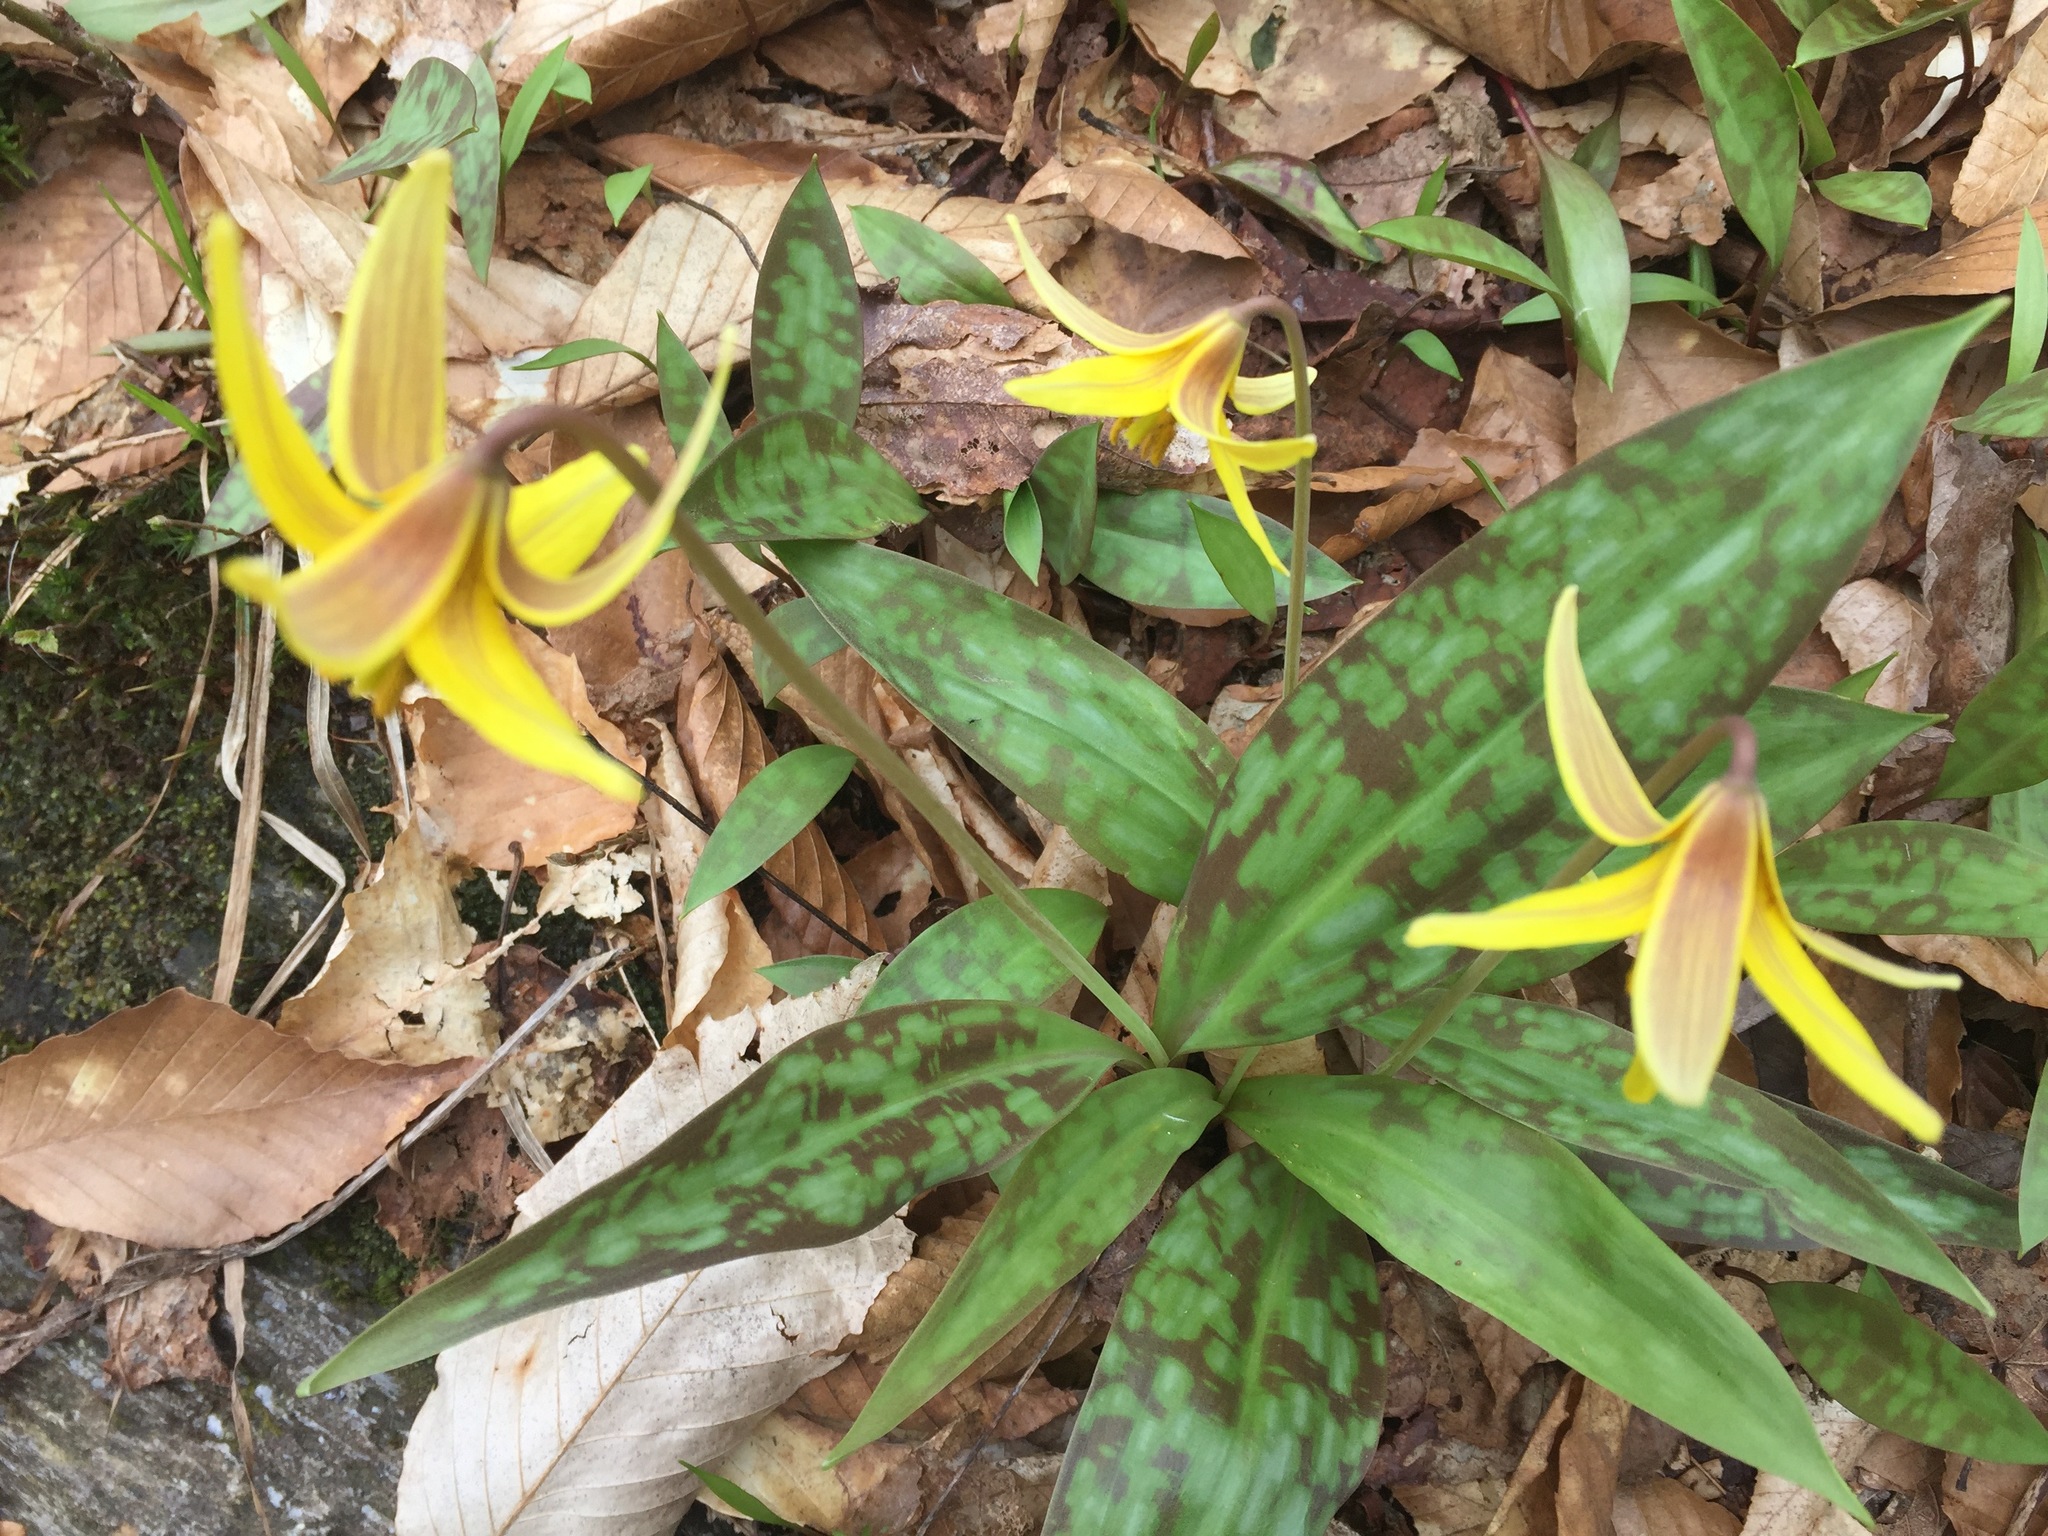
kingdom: Plantae
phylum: Tracheophyta
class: Liliopsida
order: Liliales
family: Liliaceae
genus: Erythronium
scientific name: Erythronium americanum
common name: Yellow adder's-tongue
